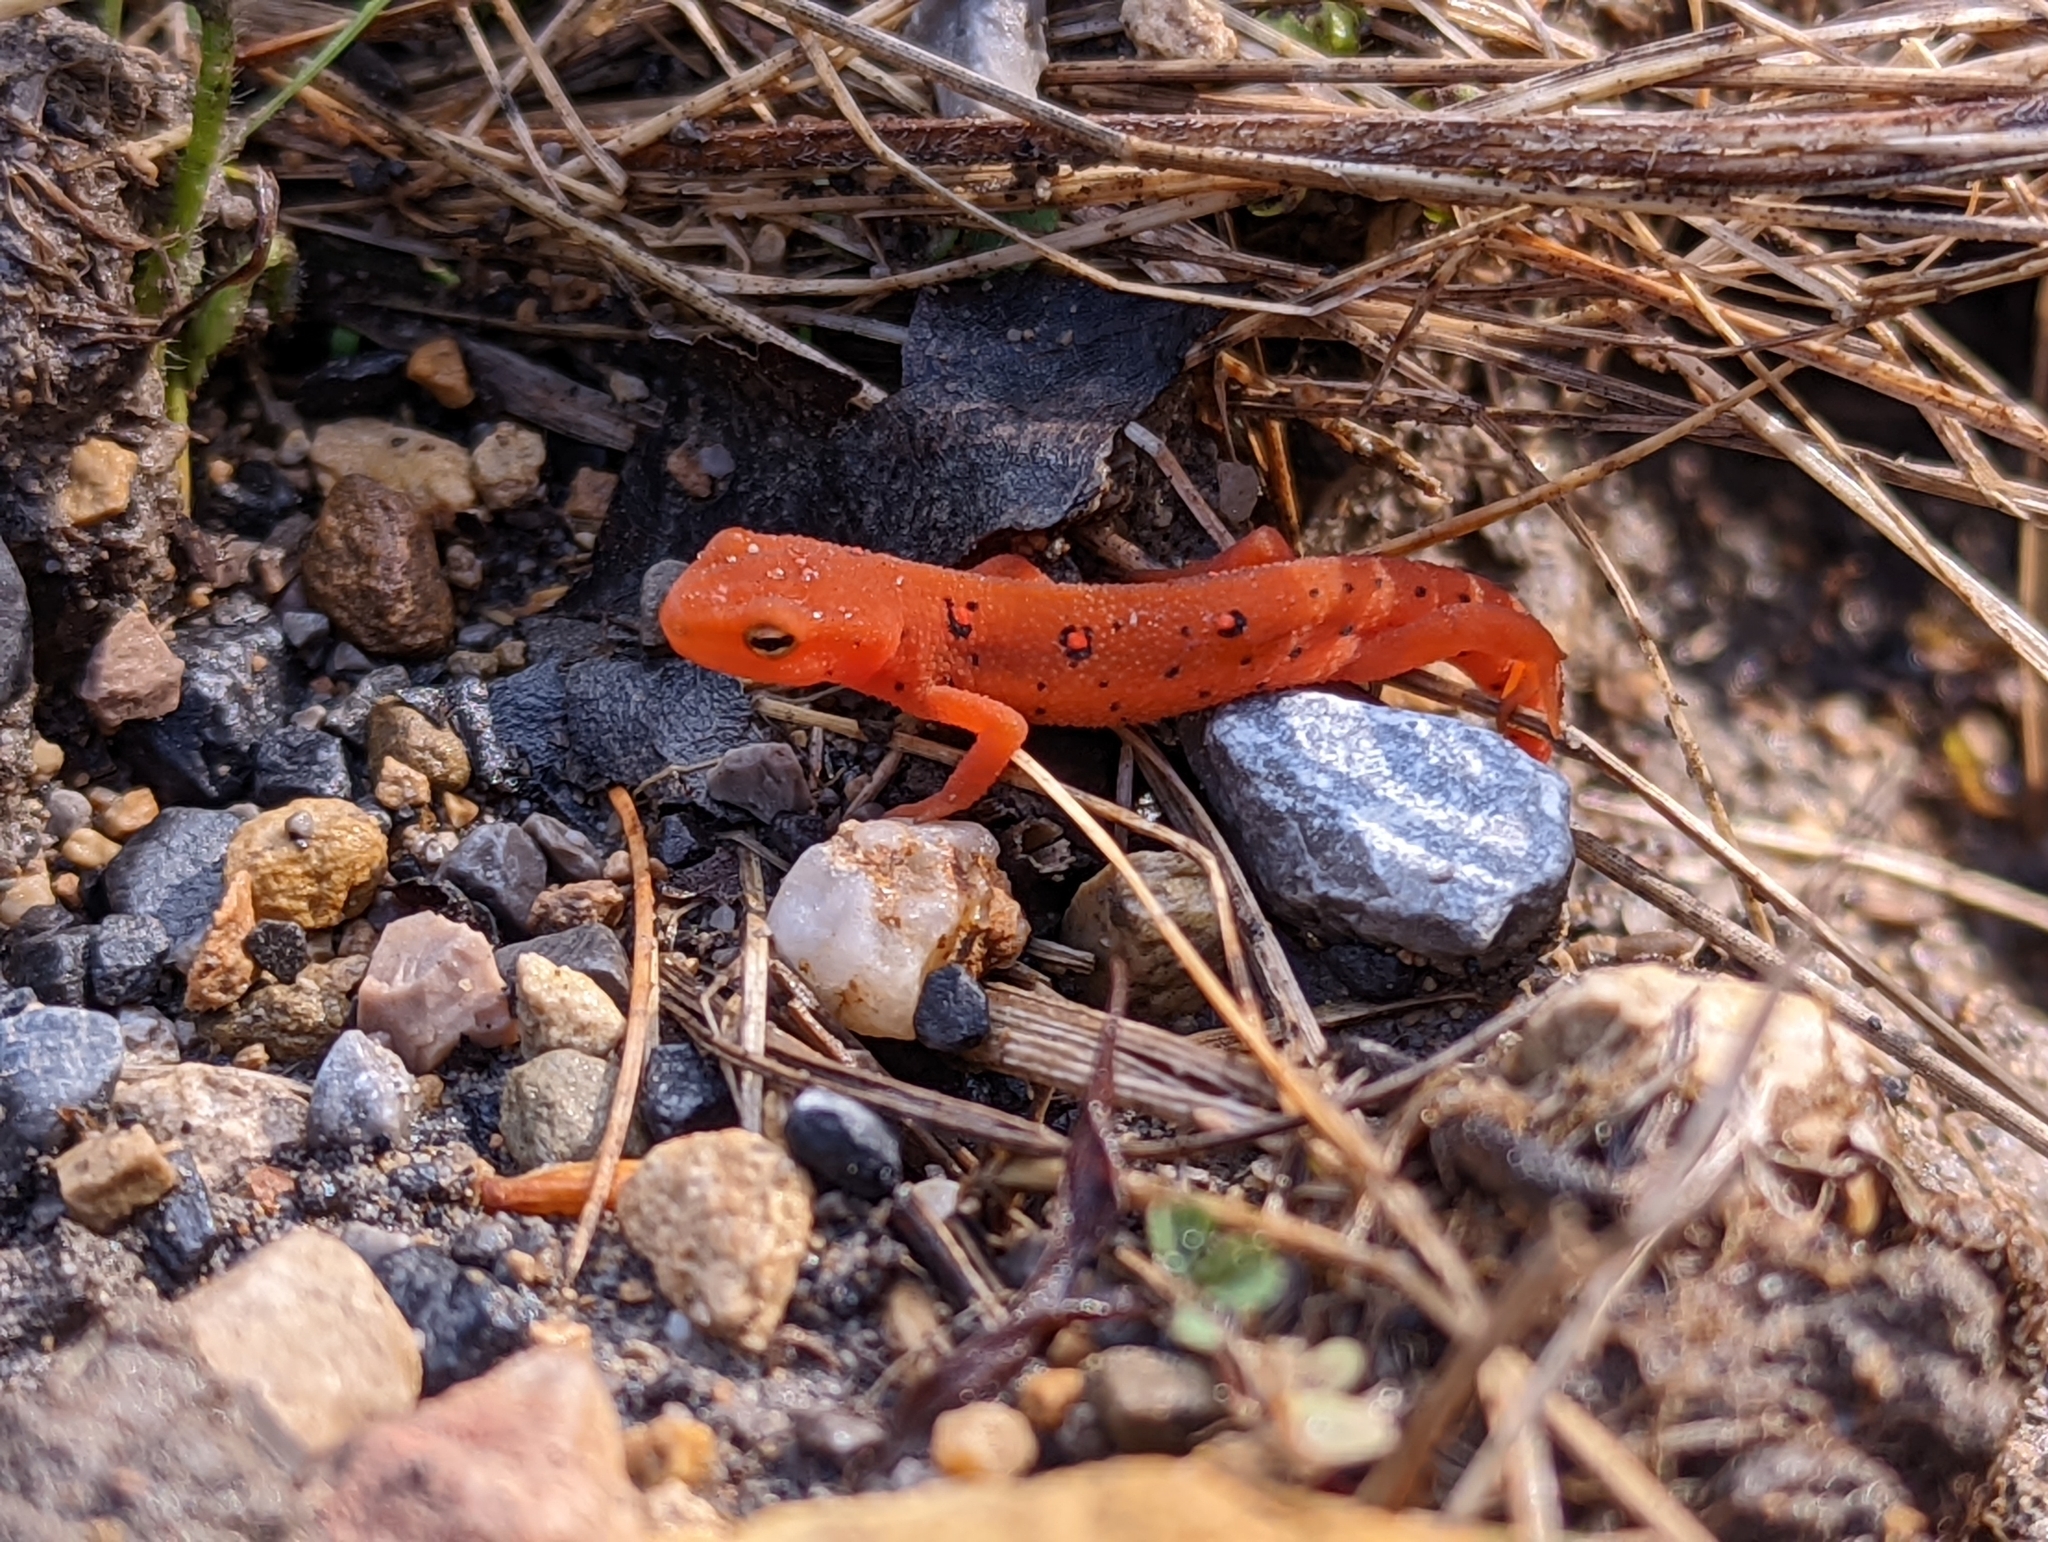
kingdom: Animalia
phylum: Chordata
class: Amphibia
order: Caudata
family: Salamandridae
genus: Notophthalmus
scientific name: Notophthalmus viridescens
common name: Eastern newt
